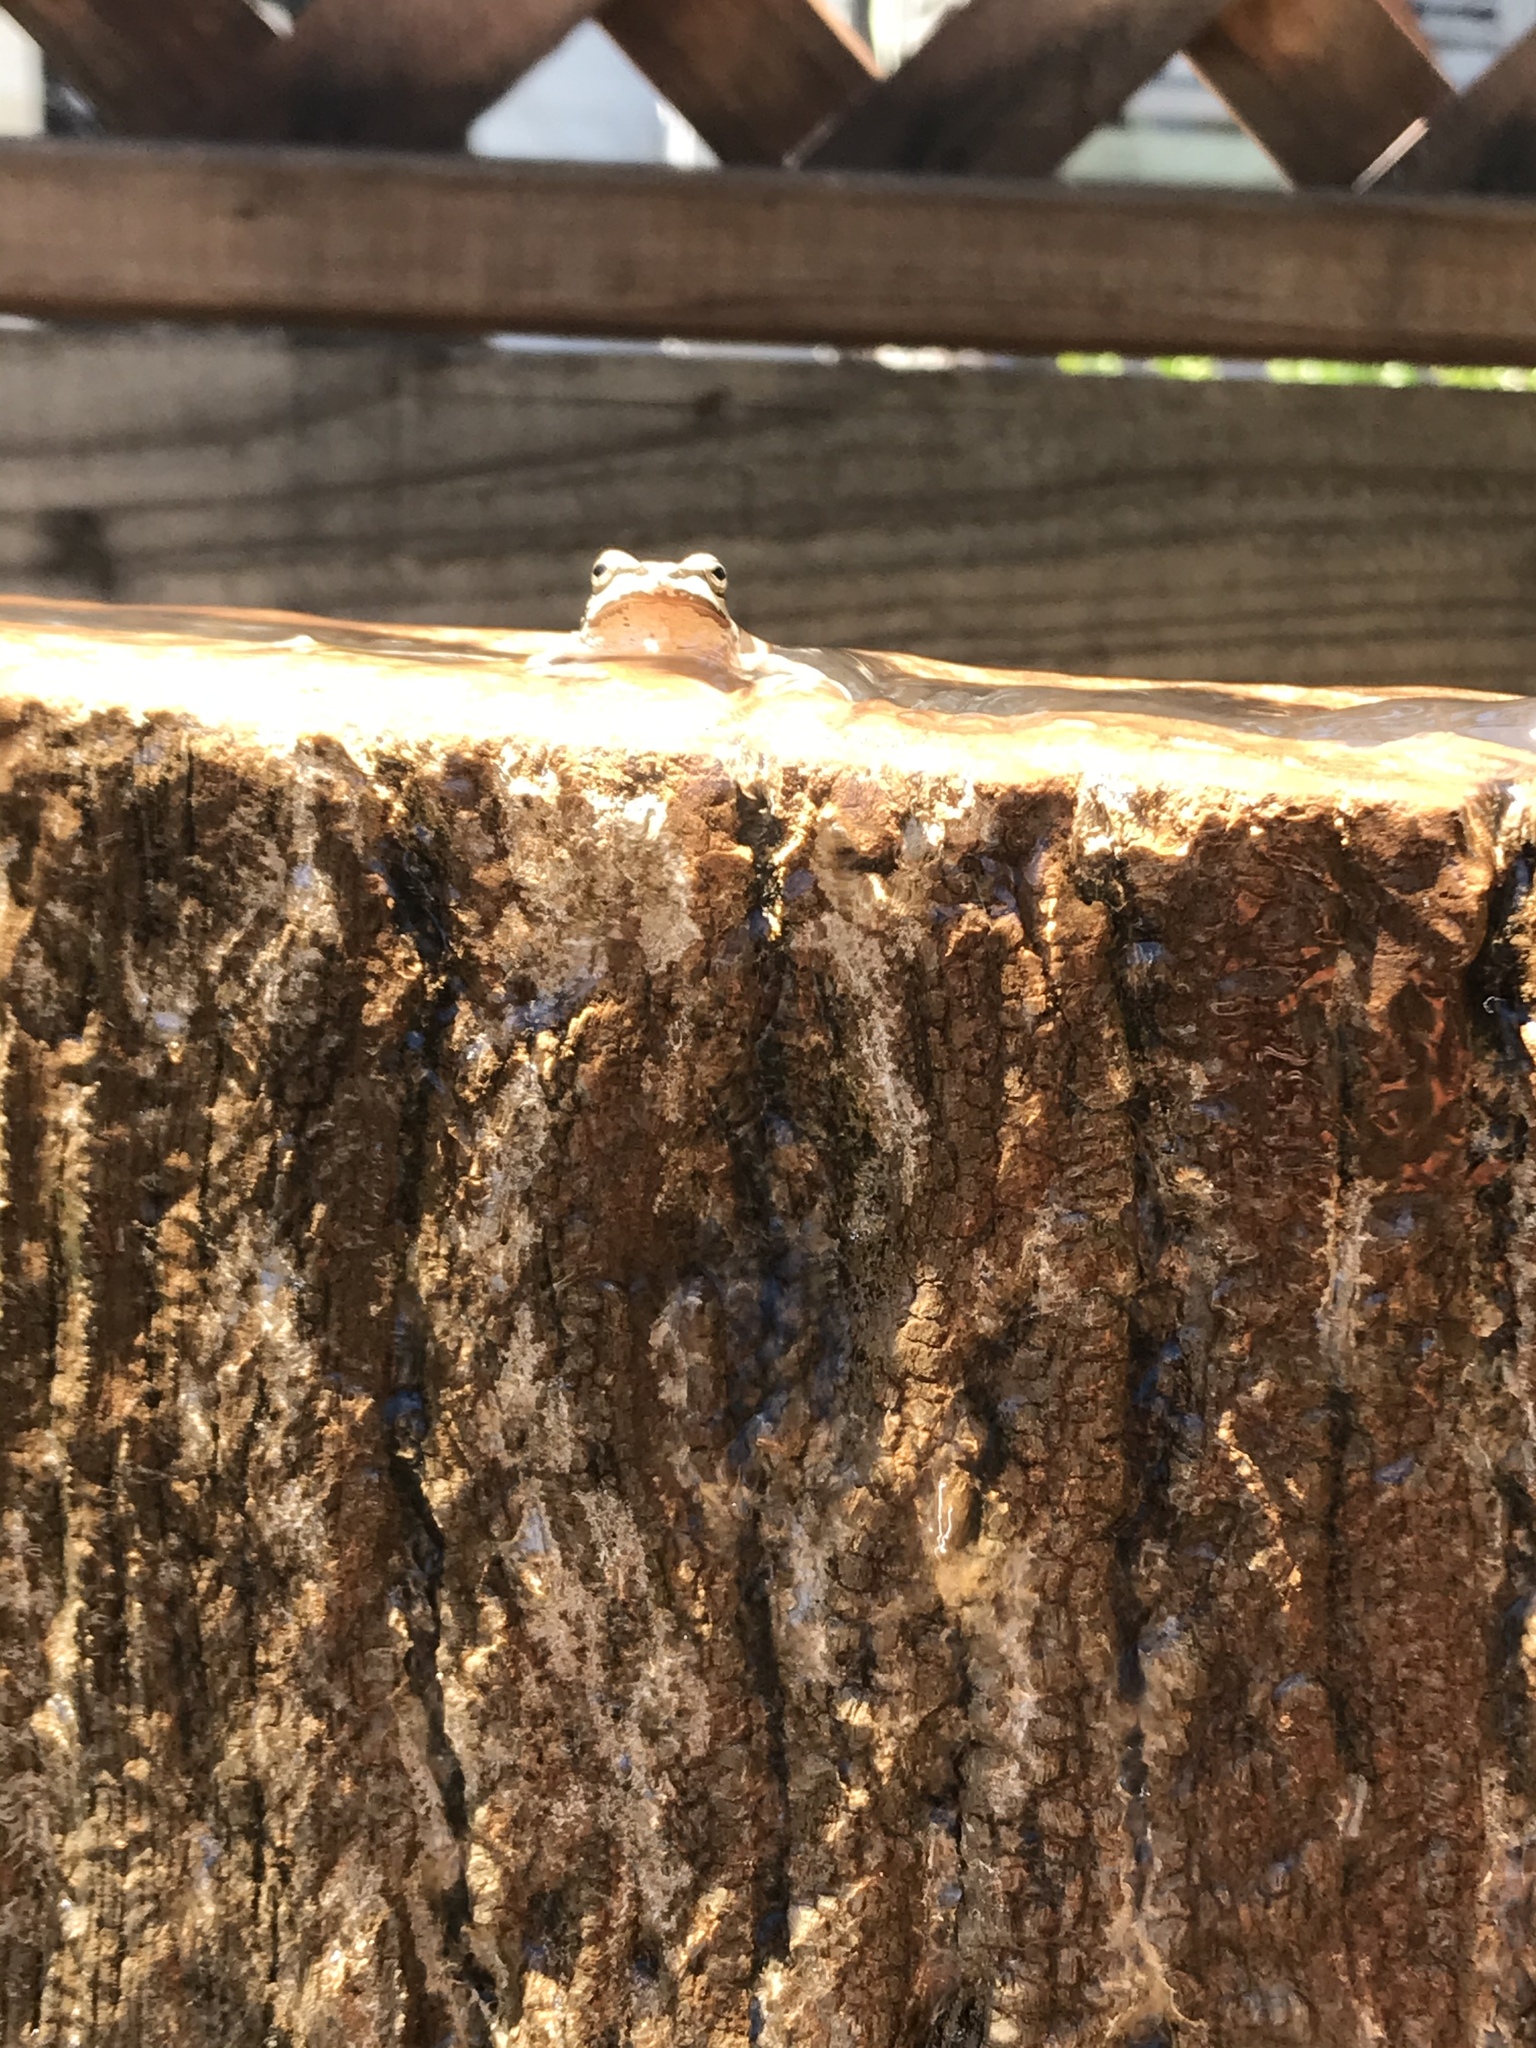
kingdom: Animalia
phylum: Chordata
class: Amphibia
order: Anura
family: Hylidae
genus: Pseudacris
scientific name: Pseudacris regilla
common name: Pacific chorus frog
